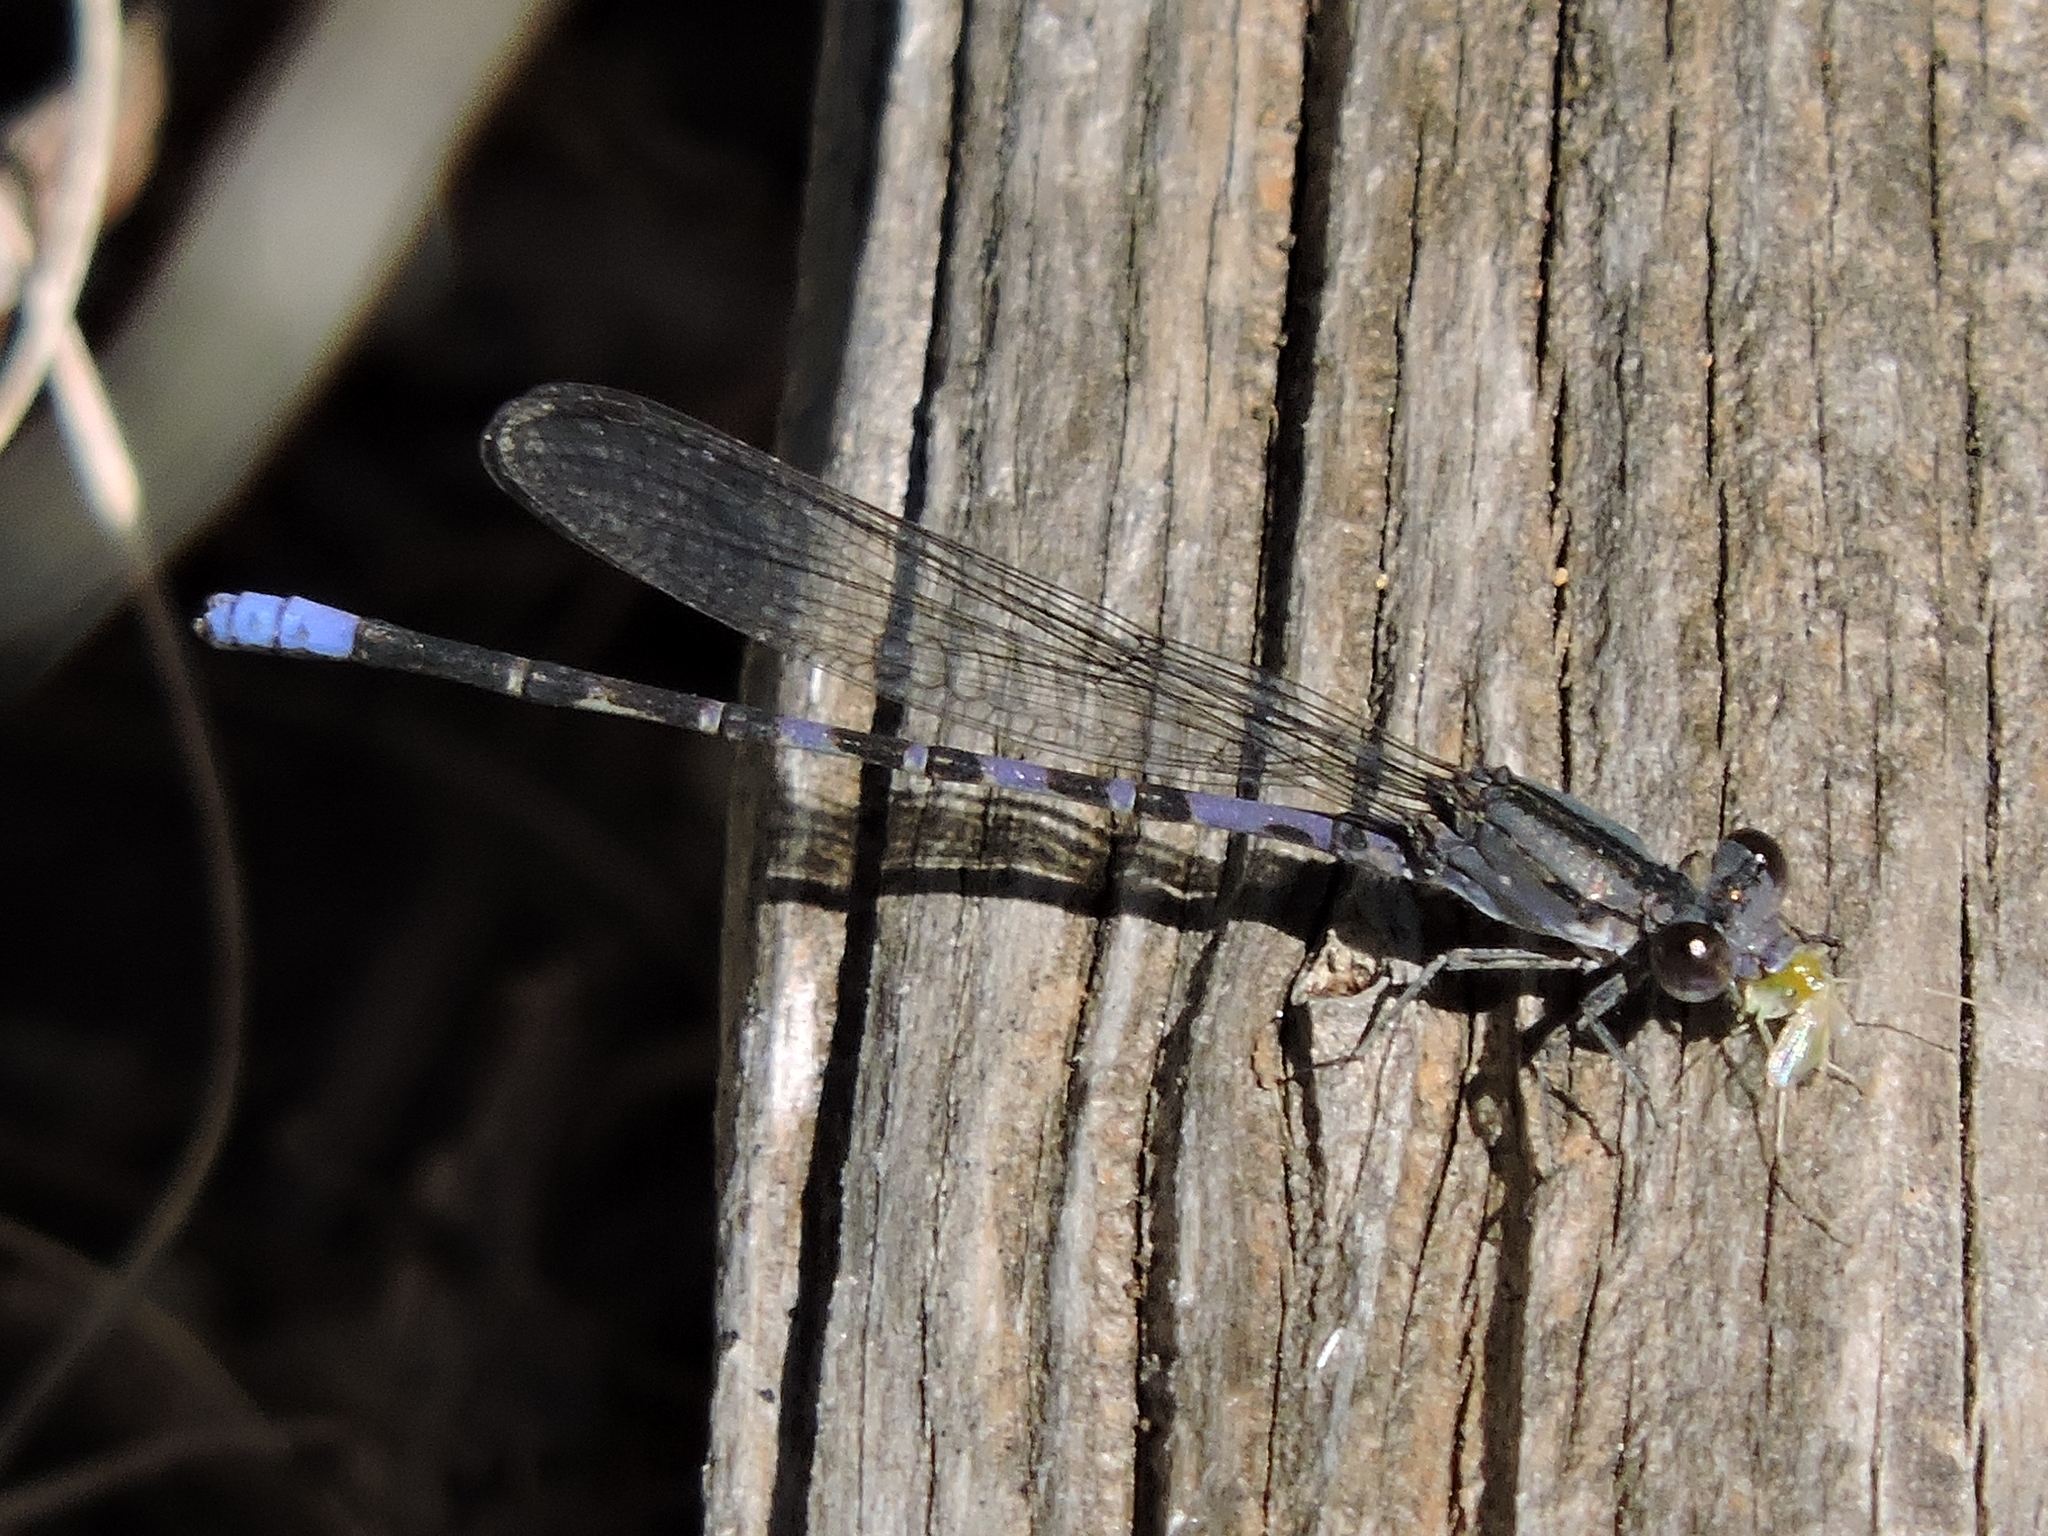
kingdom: Animalia
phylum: Arthropoda
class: Insecta
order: Odonata
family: Coenagrionidae
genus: Argia
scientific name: Argia immunda
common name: Kiowa dancer
